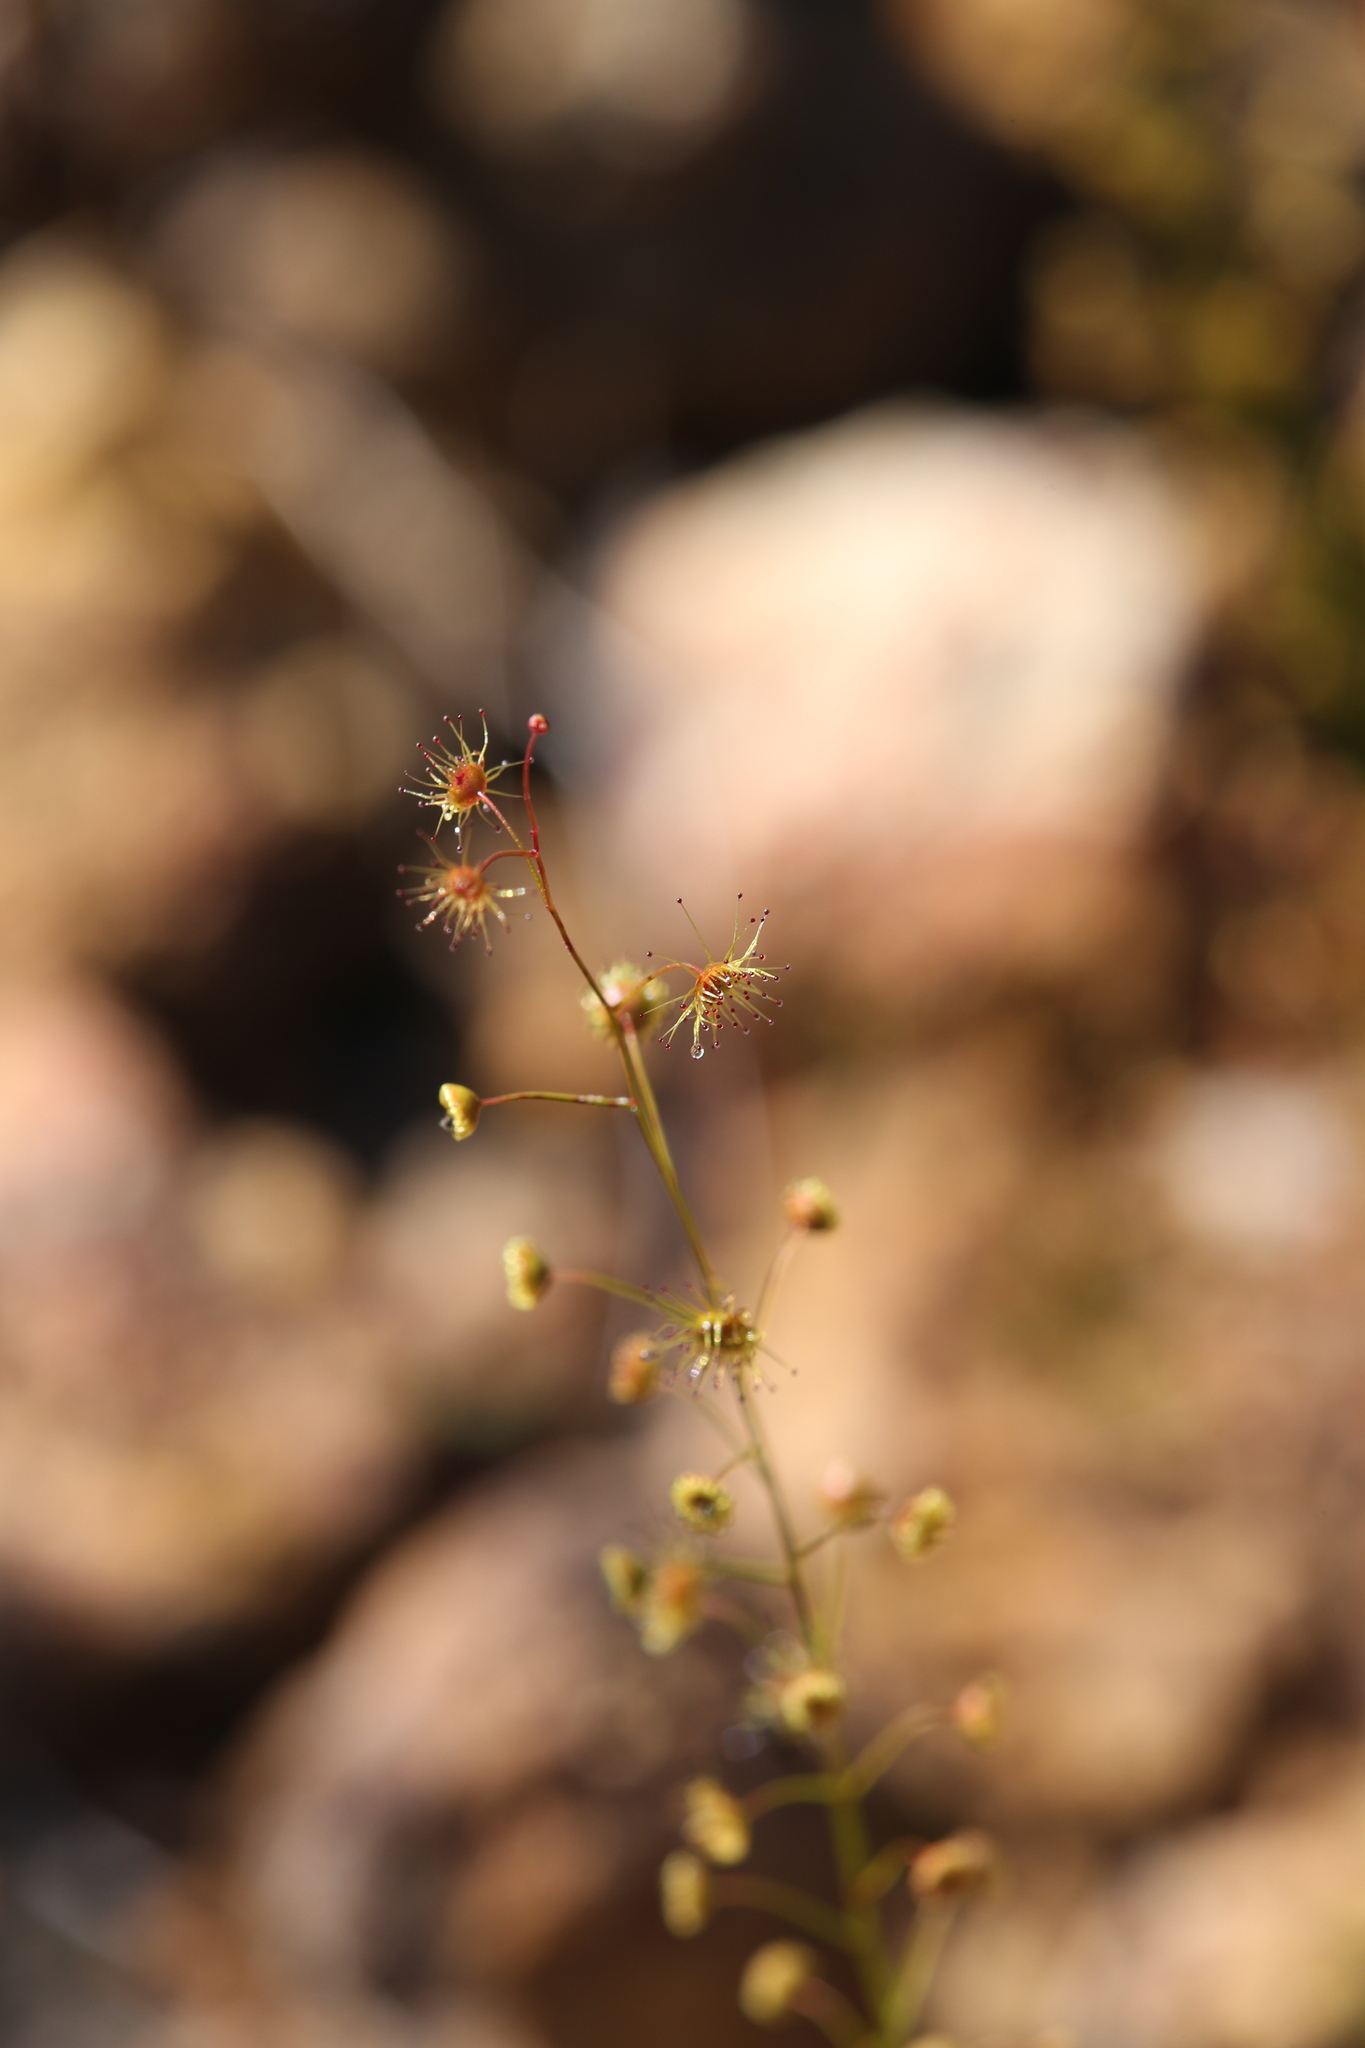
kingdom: Plantae
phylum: Tracheophyta
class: Magnoliopsida
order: Caryophyllales
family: Droseraceae
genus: Drosera
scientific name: Drosera marchantii
